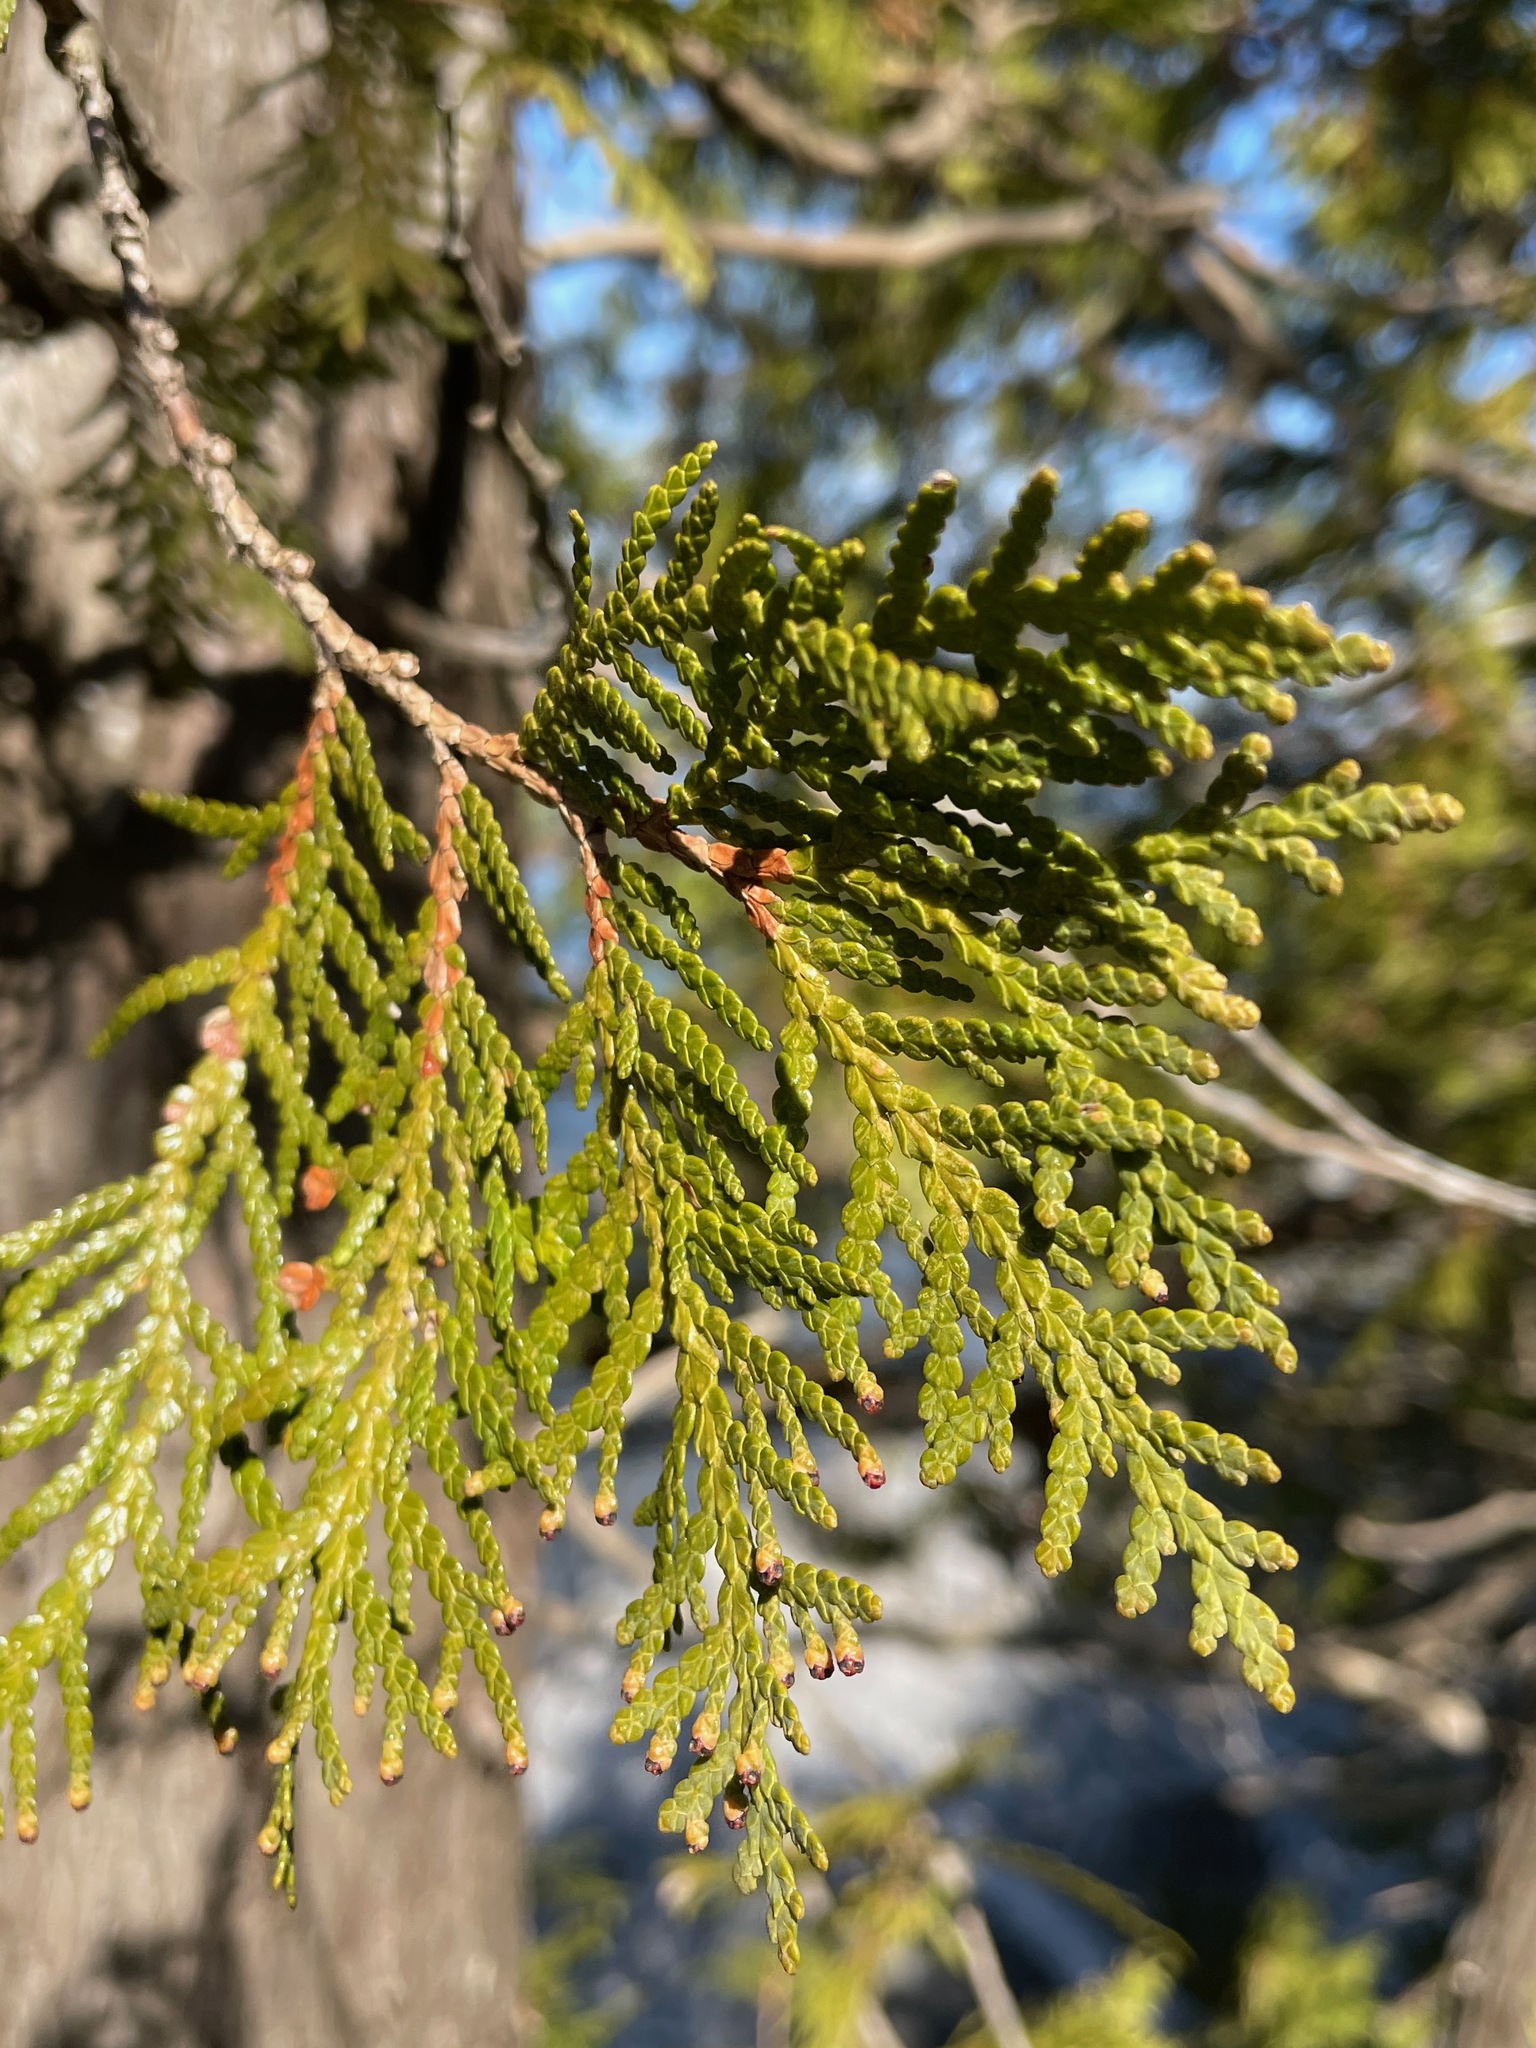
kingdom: Plantae
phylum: Tracheophyta
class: Pinopsida
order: Pinales
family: Cupressaceae
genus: Thuja
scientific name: Thuja occidentalis
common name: Northern white-cedar
